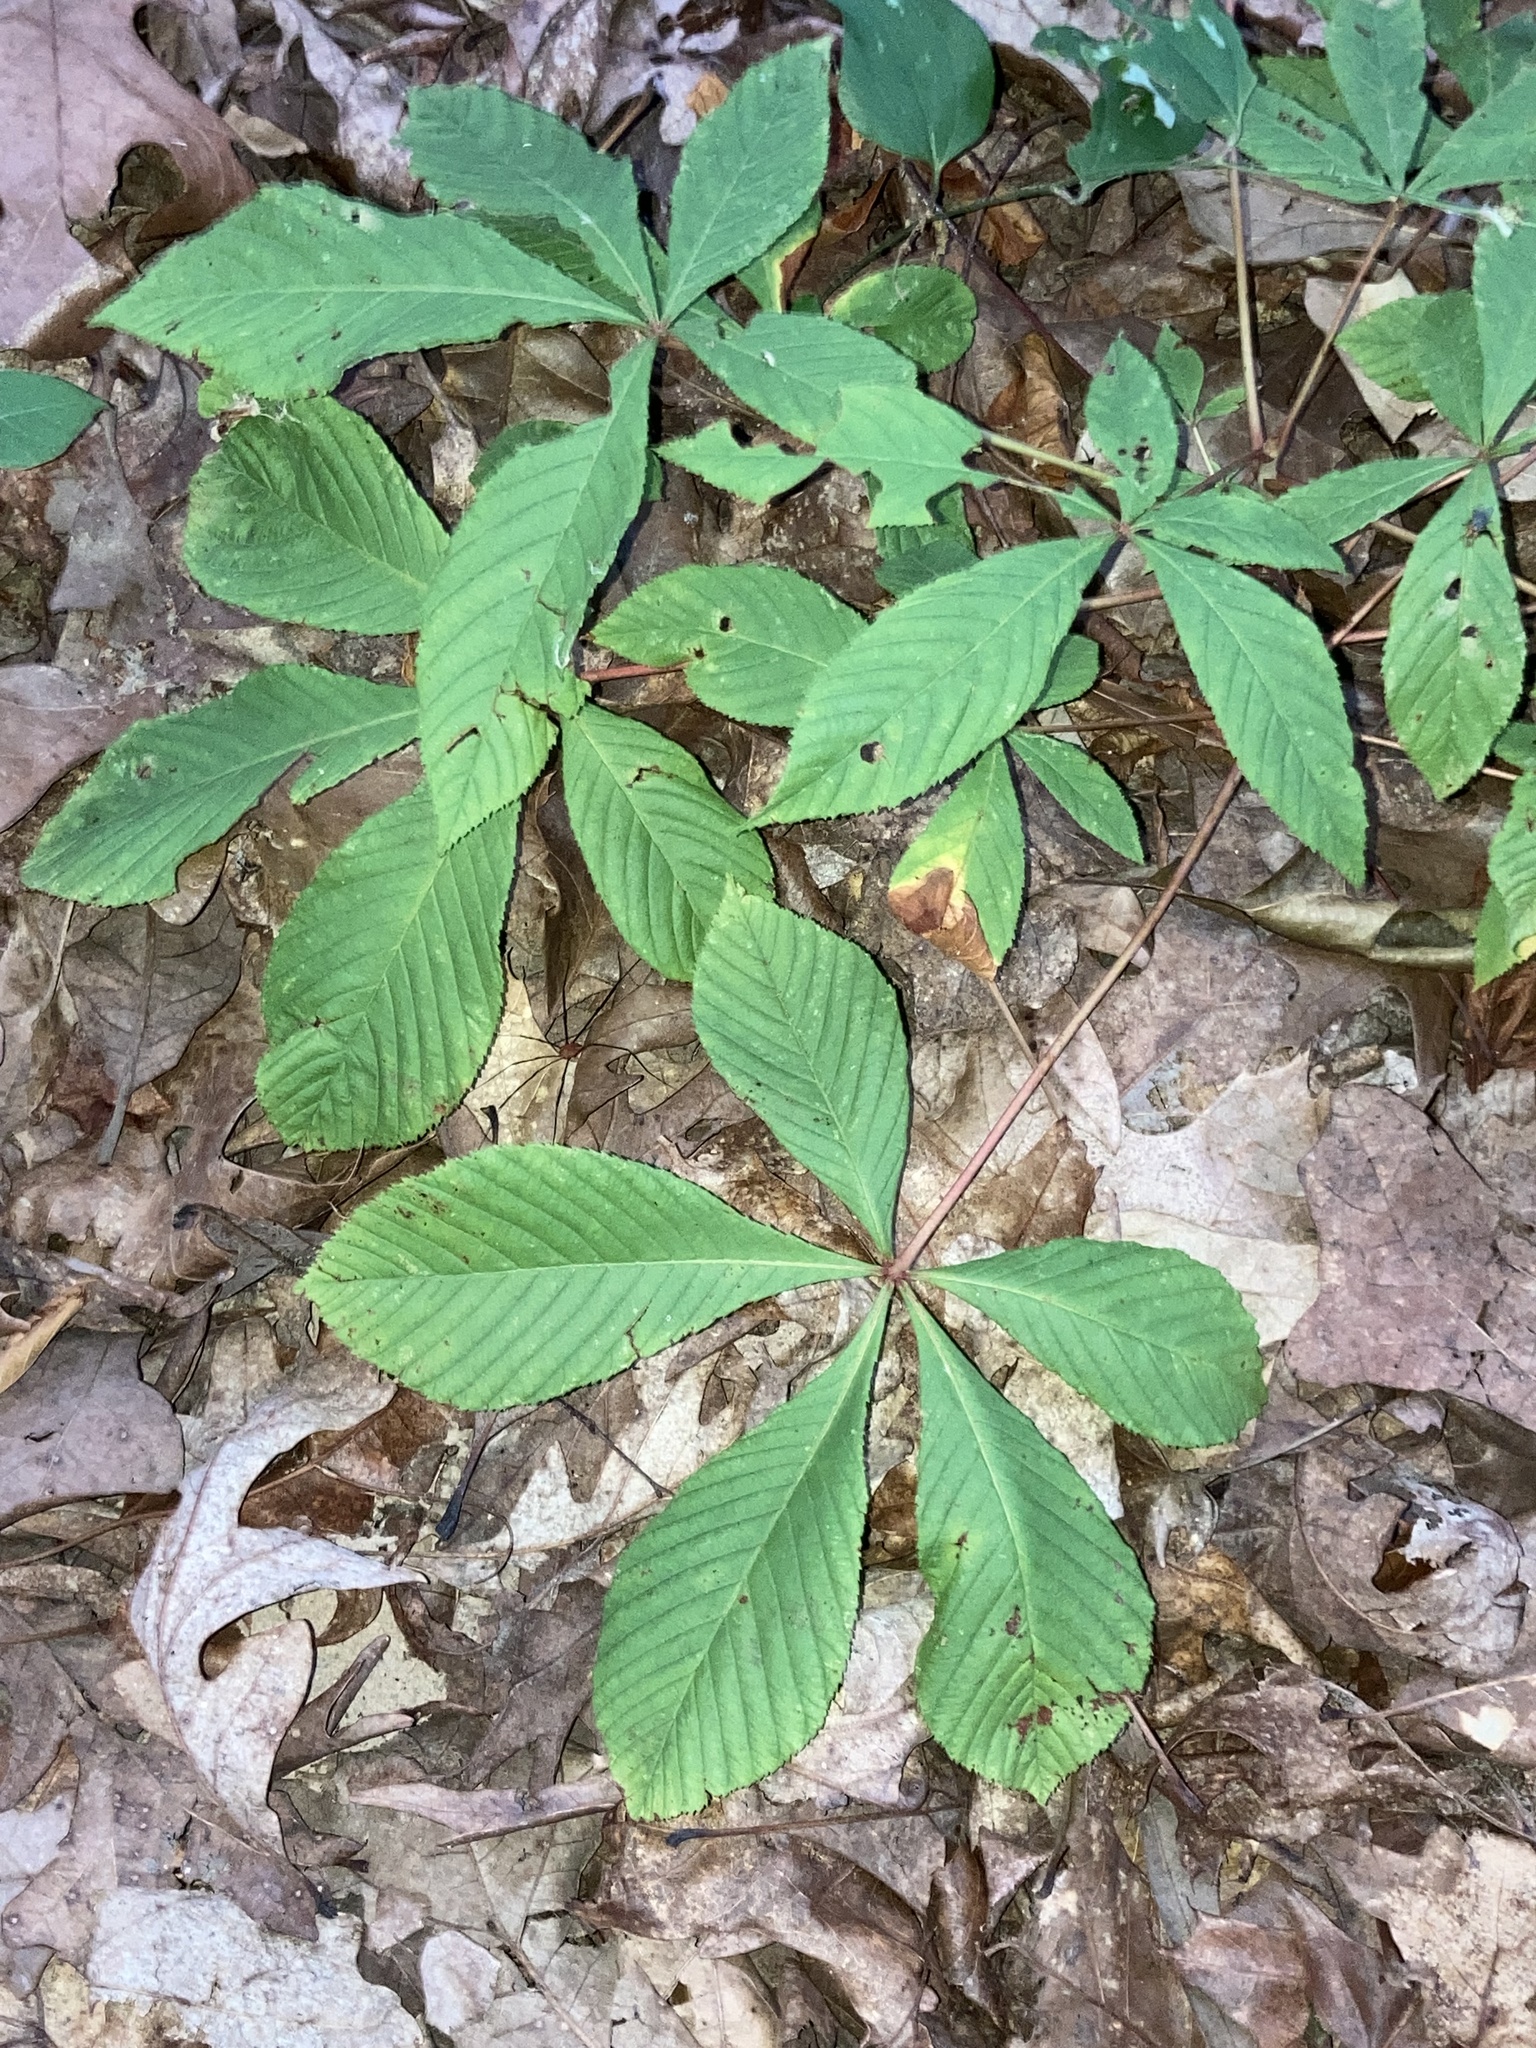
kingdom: Plantae
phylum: Tracheophyta
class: Magnoliopsida
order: Sapindales
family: Sapindaceae
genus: Aesculus
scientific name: Aesculus pavia
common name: Red buckeye
